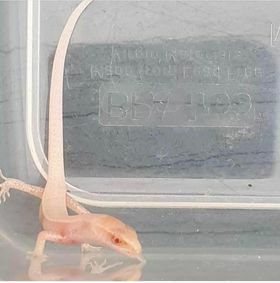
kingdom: Animalia
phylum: Chordata
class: Squamata
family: Scincidae
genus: Lampropholis
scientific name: Lampropholis delicata
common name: Plague skink
